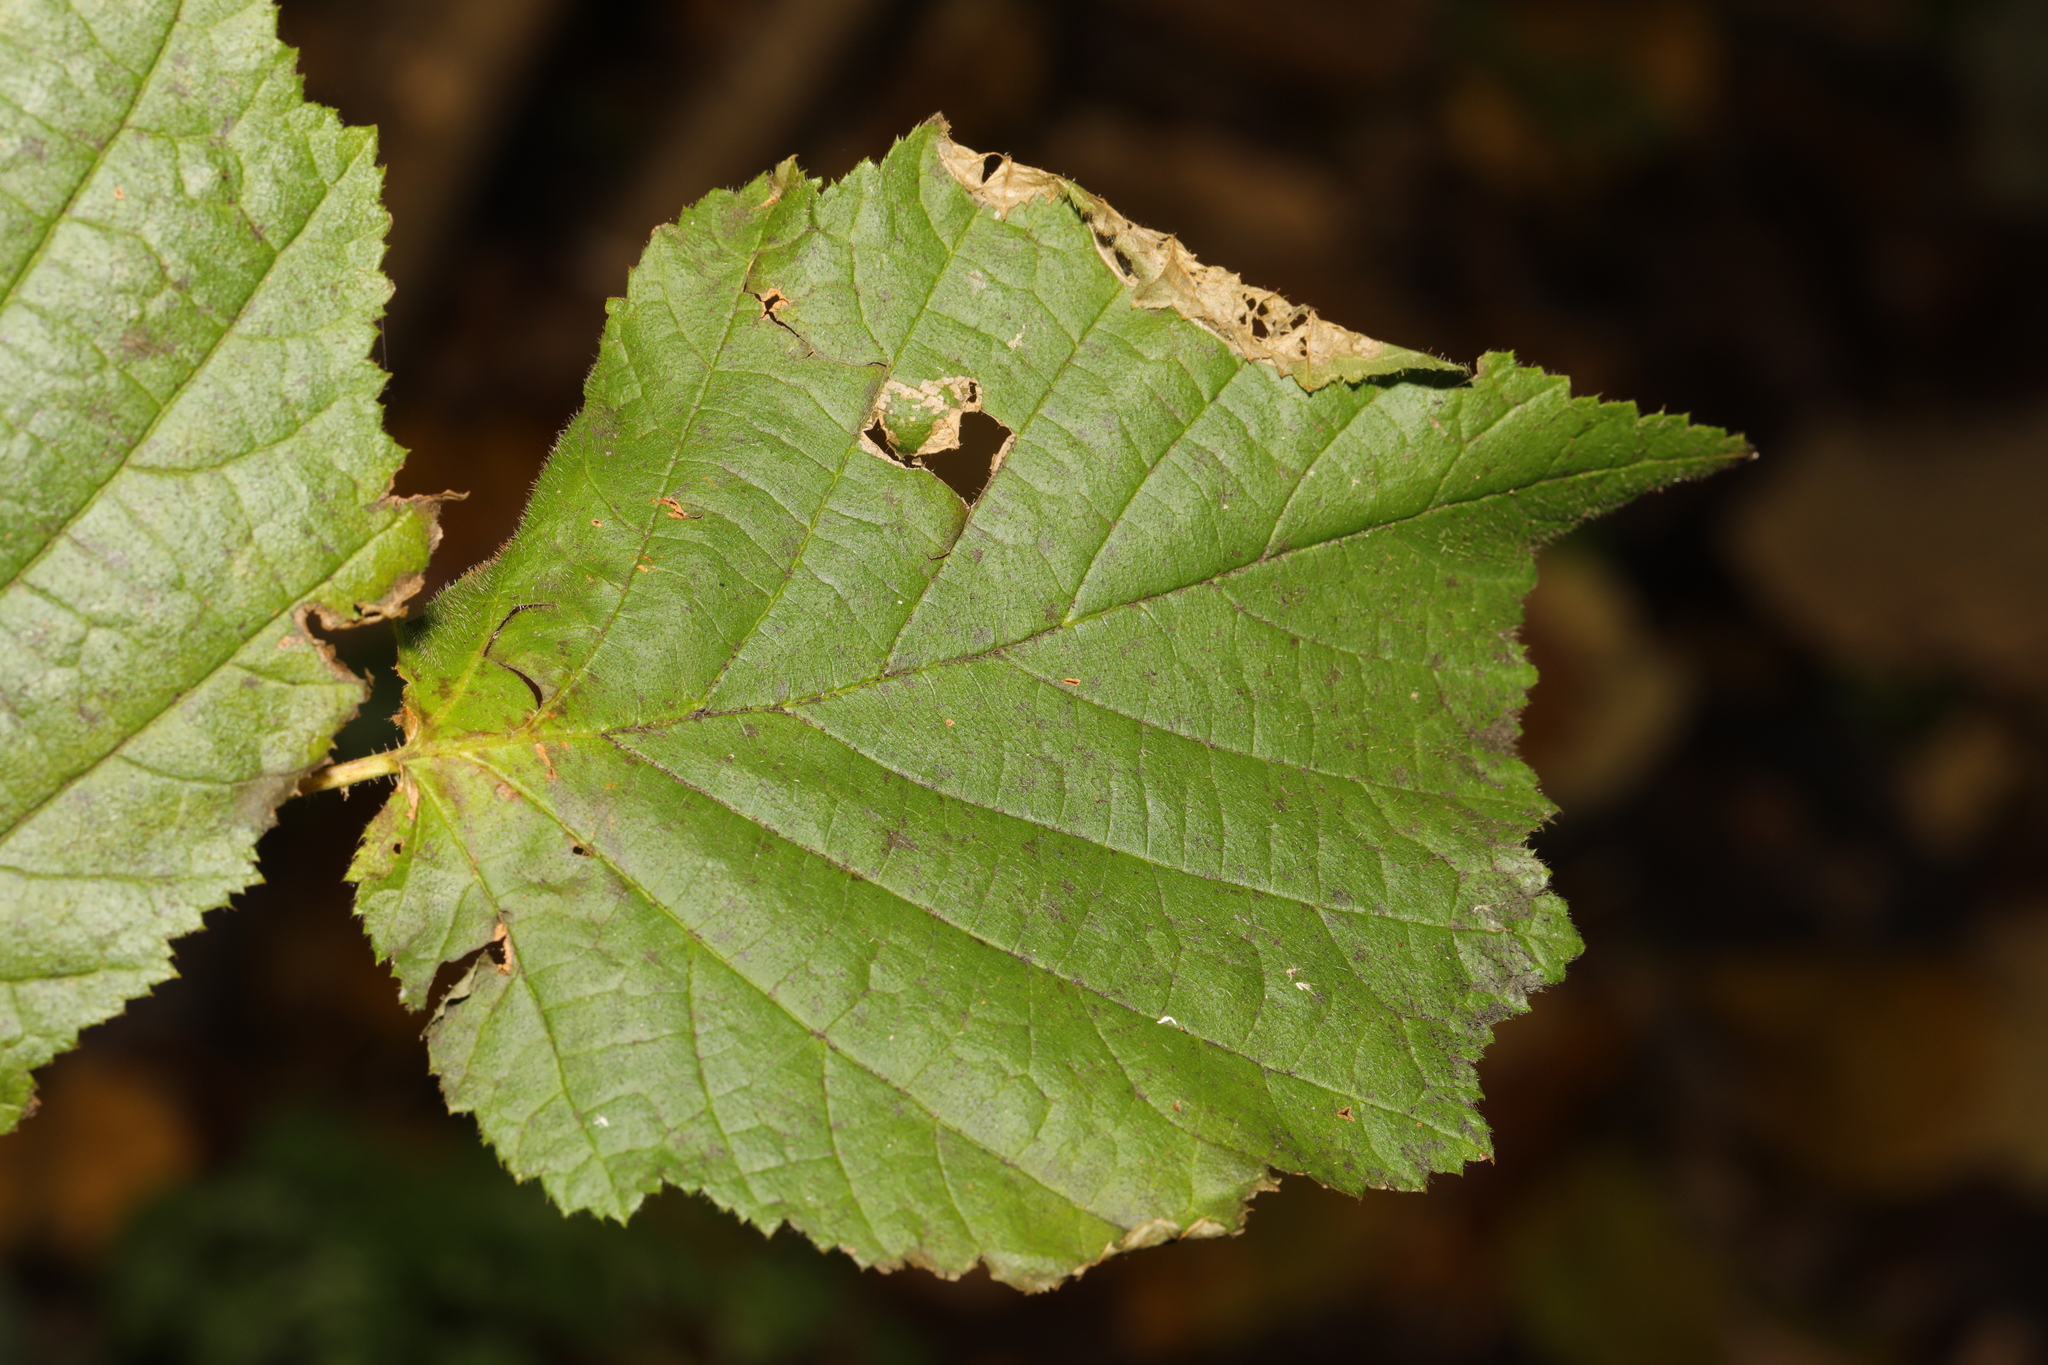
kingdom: Plantae
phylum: Tracheophyta
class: Magnoliopsida
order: Fagales
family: Betulaceae
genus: Corylus
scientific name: Corylus avellana
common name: European hazel
